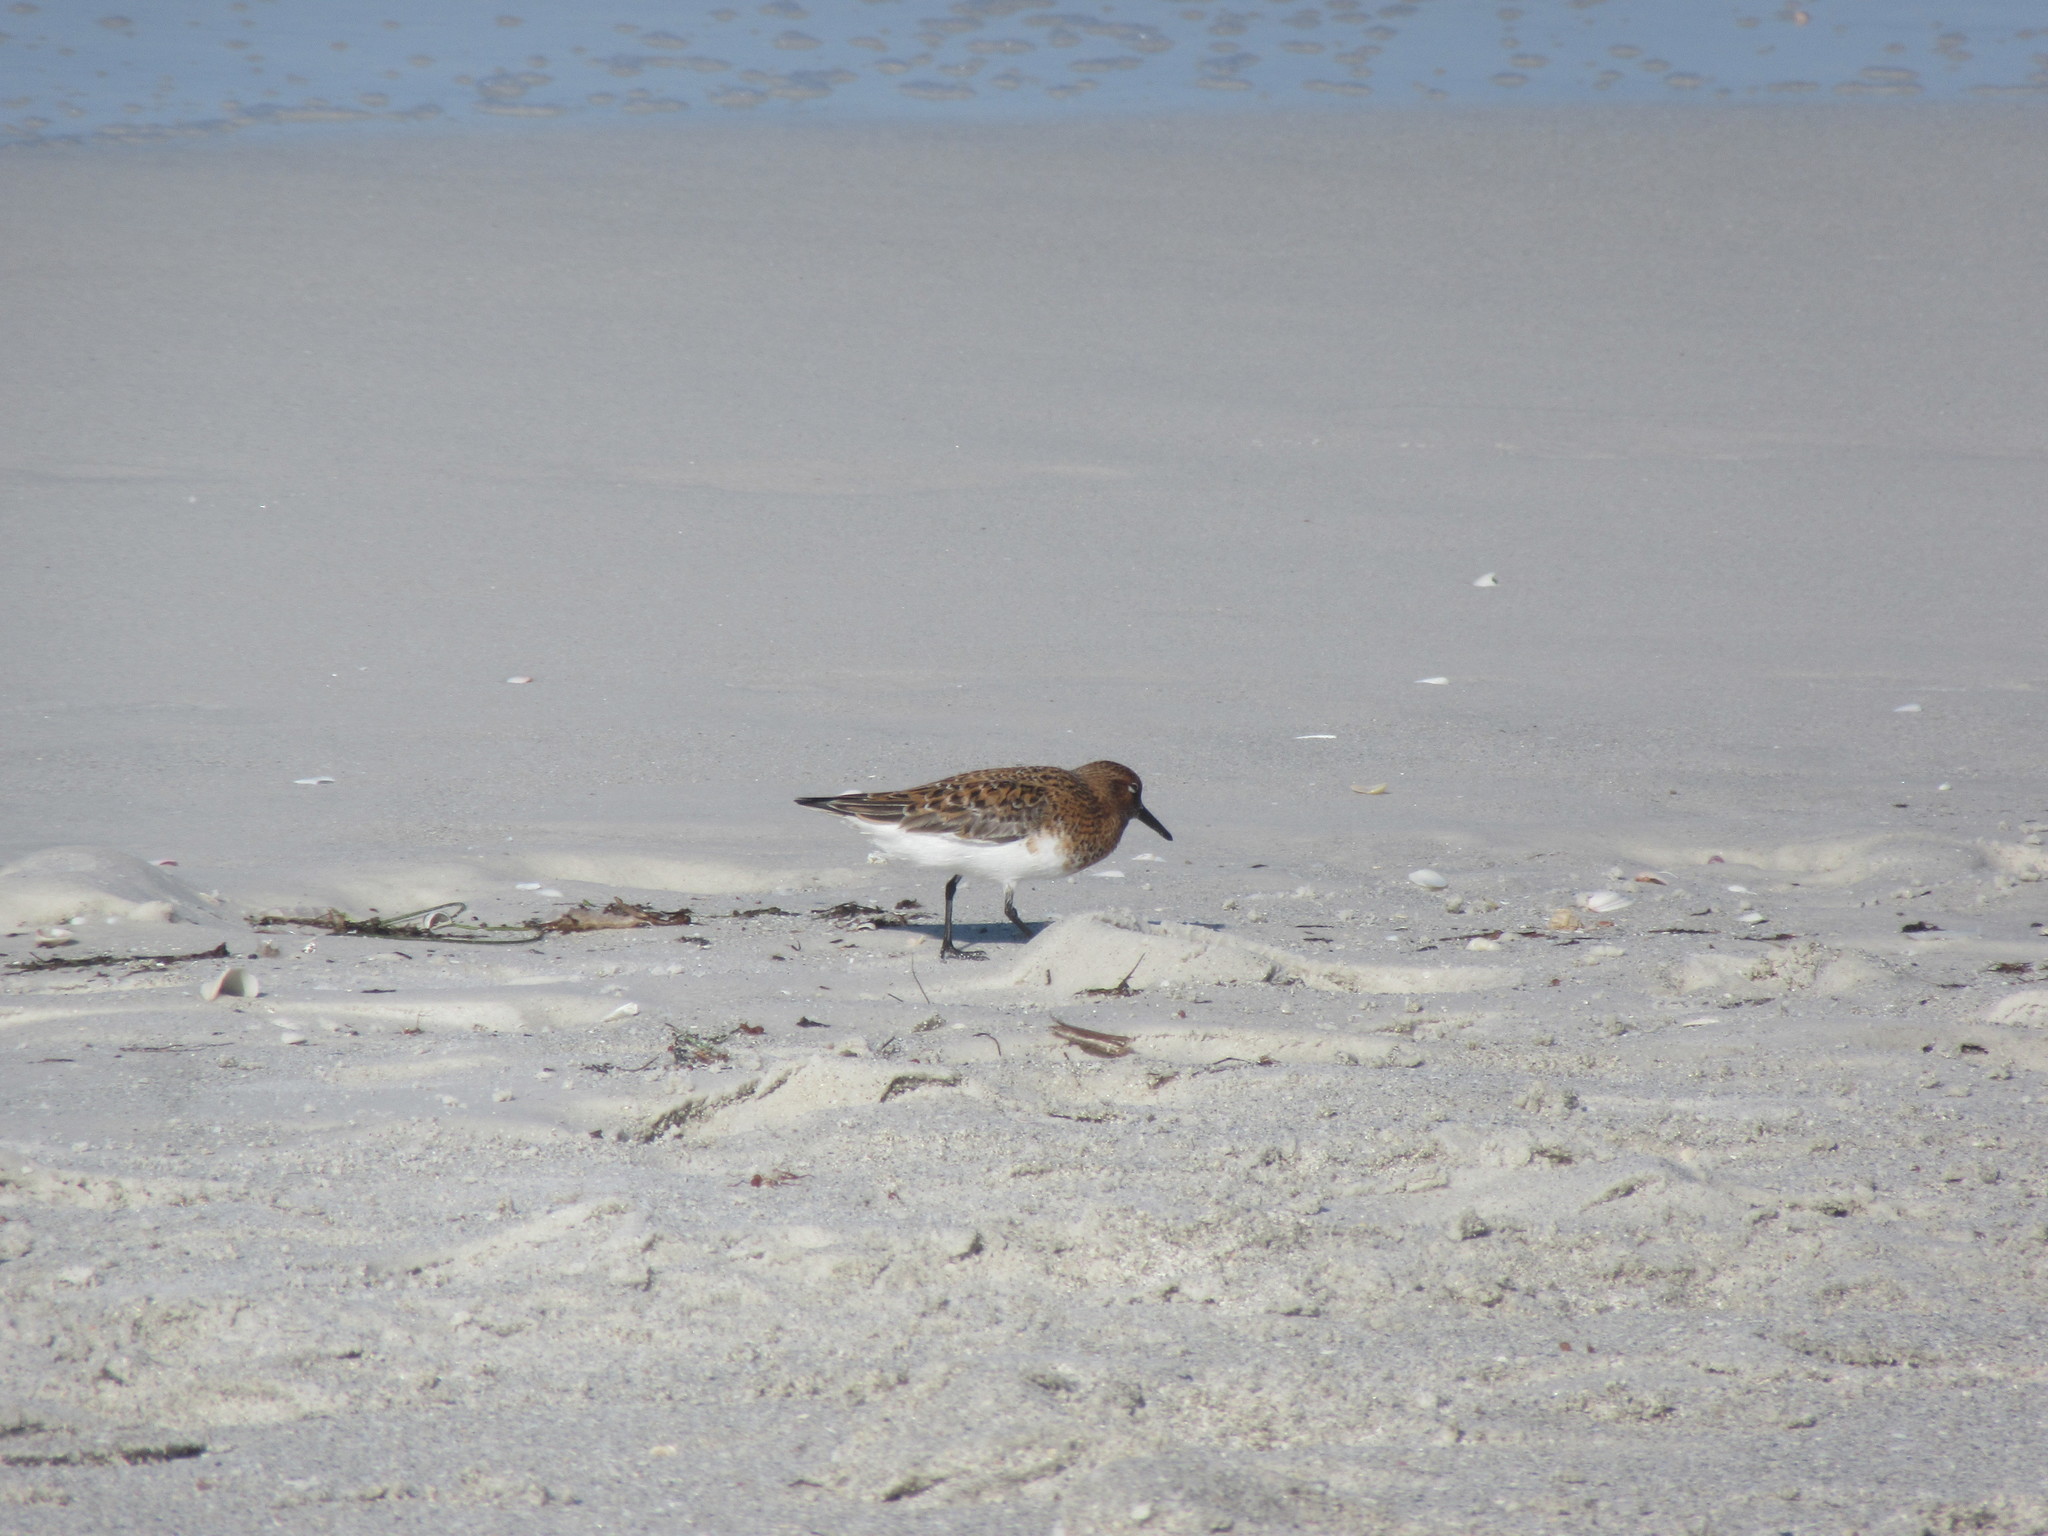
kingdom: Animalia
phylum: Chordata
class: Aves
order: Charadriiformes
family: Scolopacidae
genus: Calidris
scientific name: Calidris alba
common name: Sanderling
